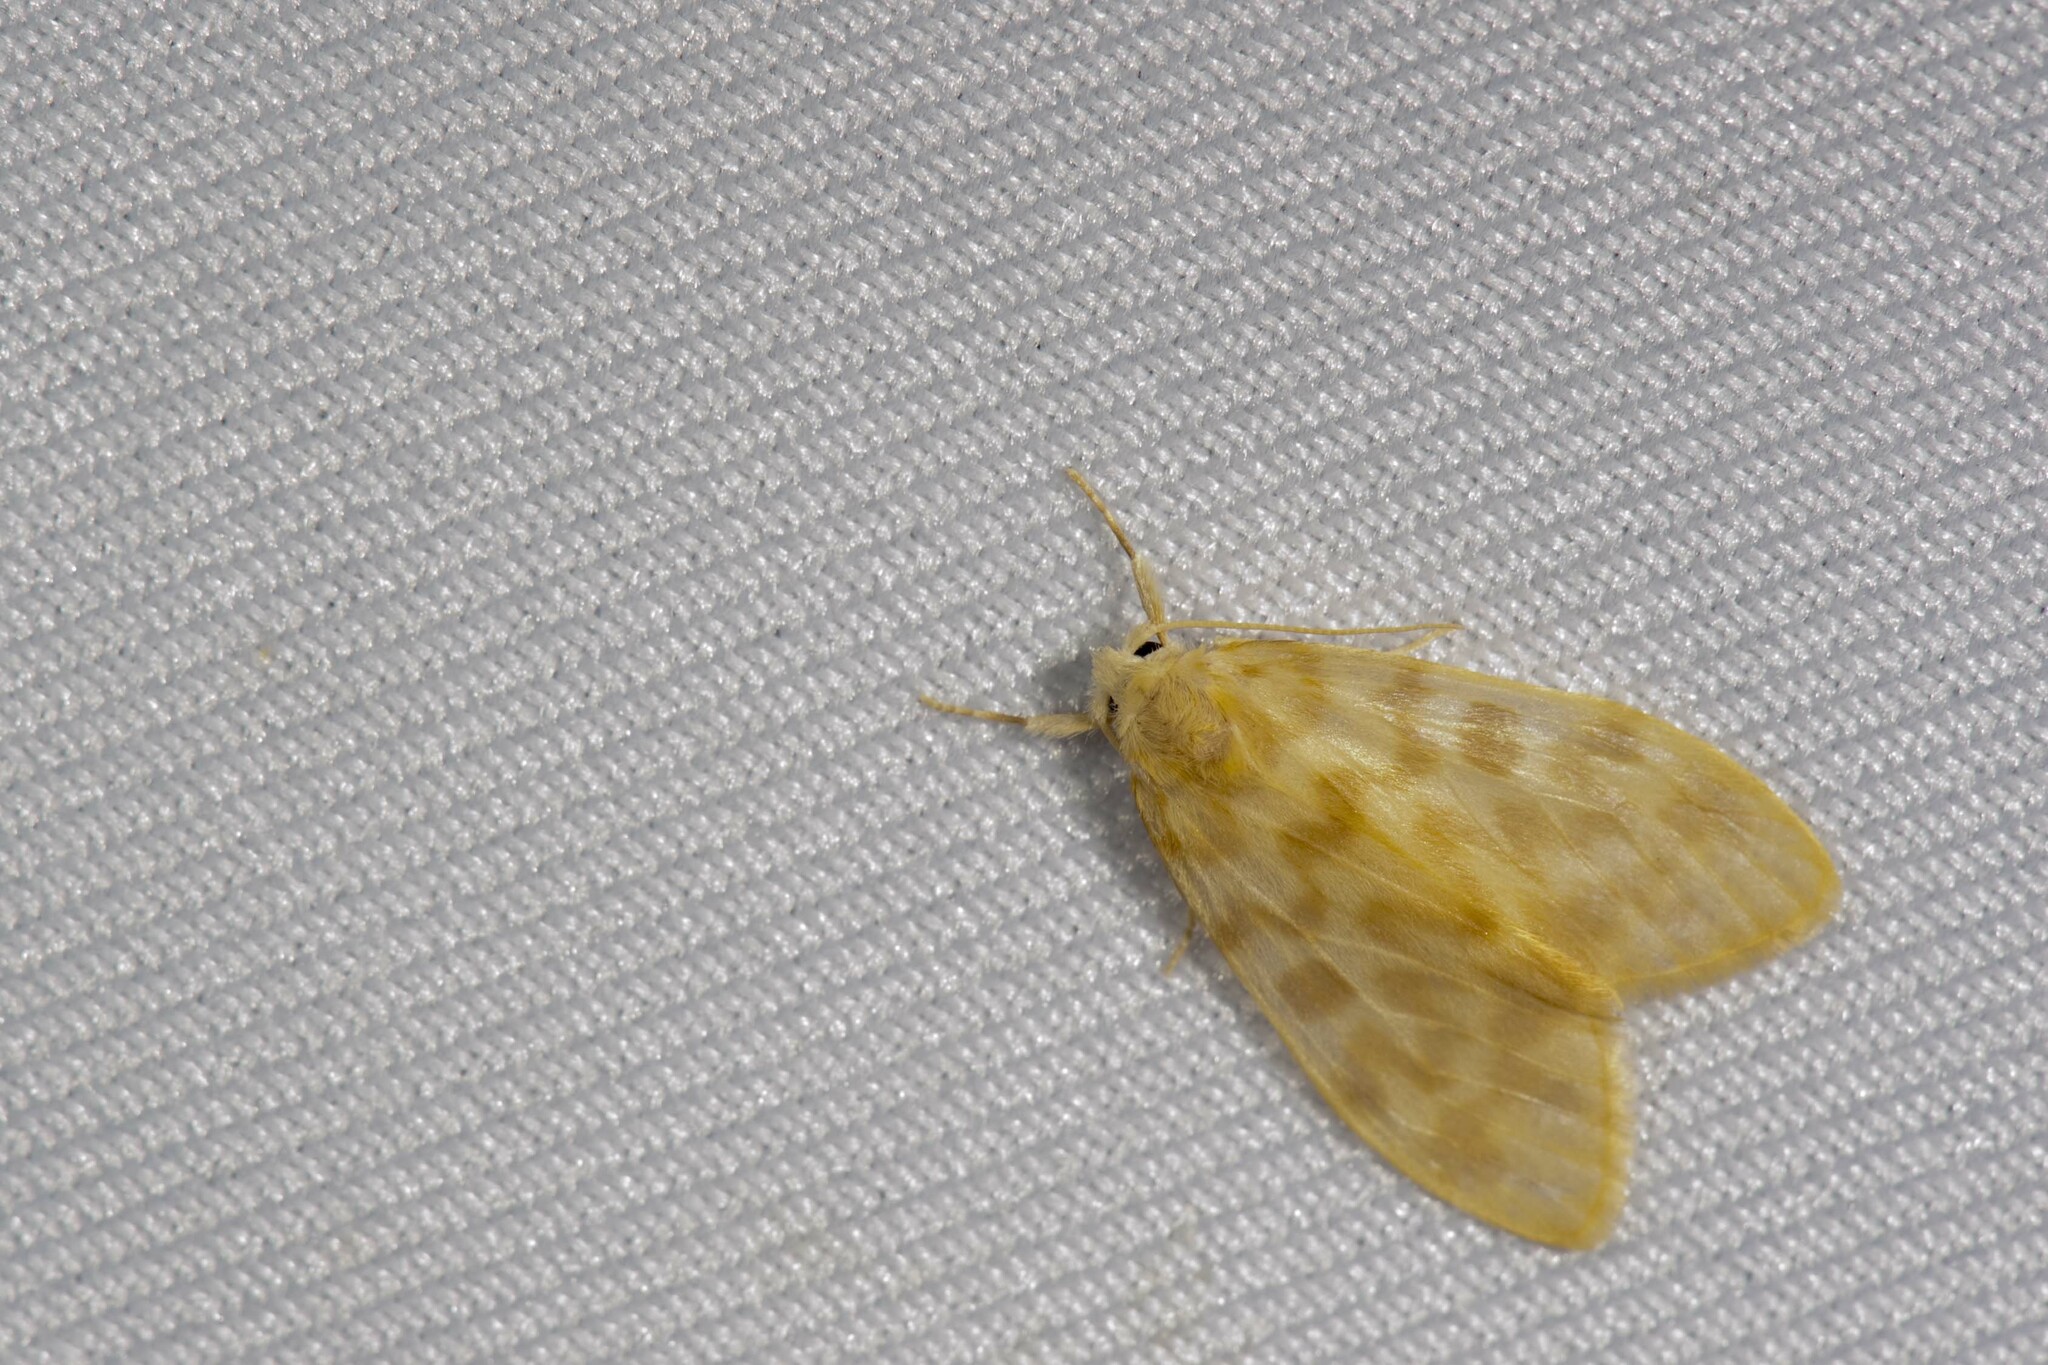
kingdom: Animalia
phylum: Arthropoda
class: Insecta
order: Lepidoptera
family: Erebidae
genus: Hemipsilia
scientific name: Hemipsilia coavestis
